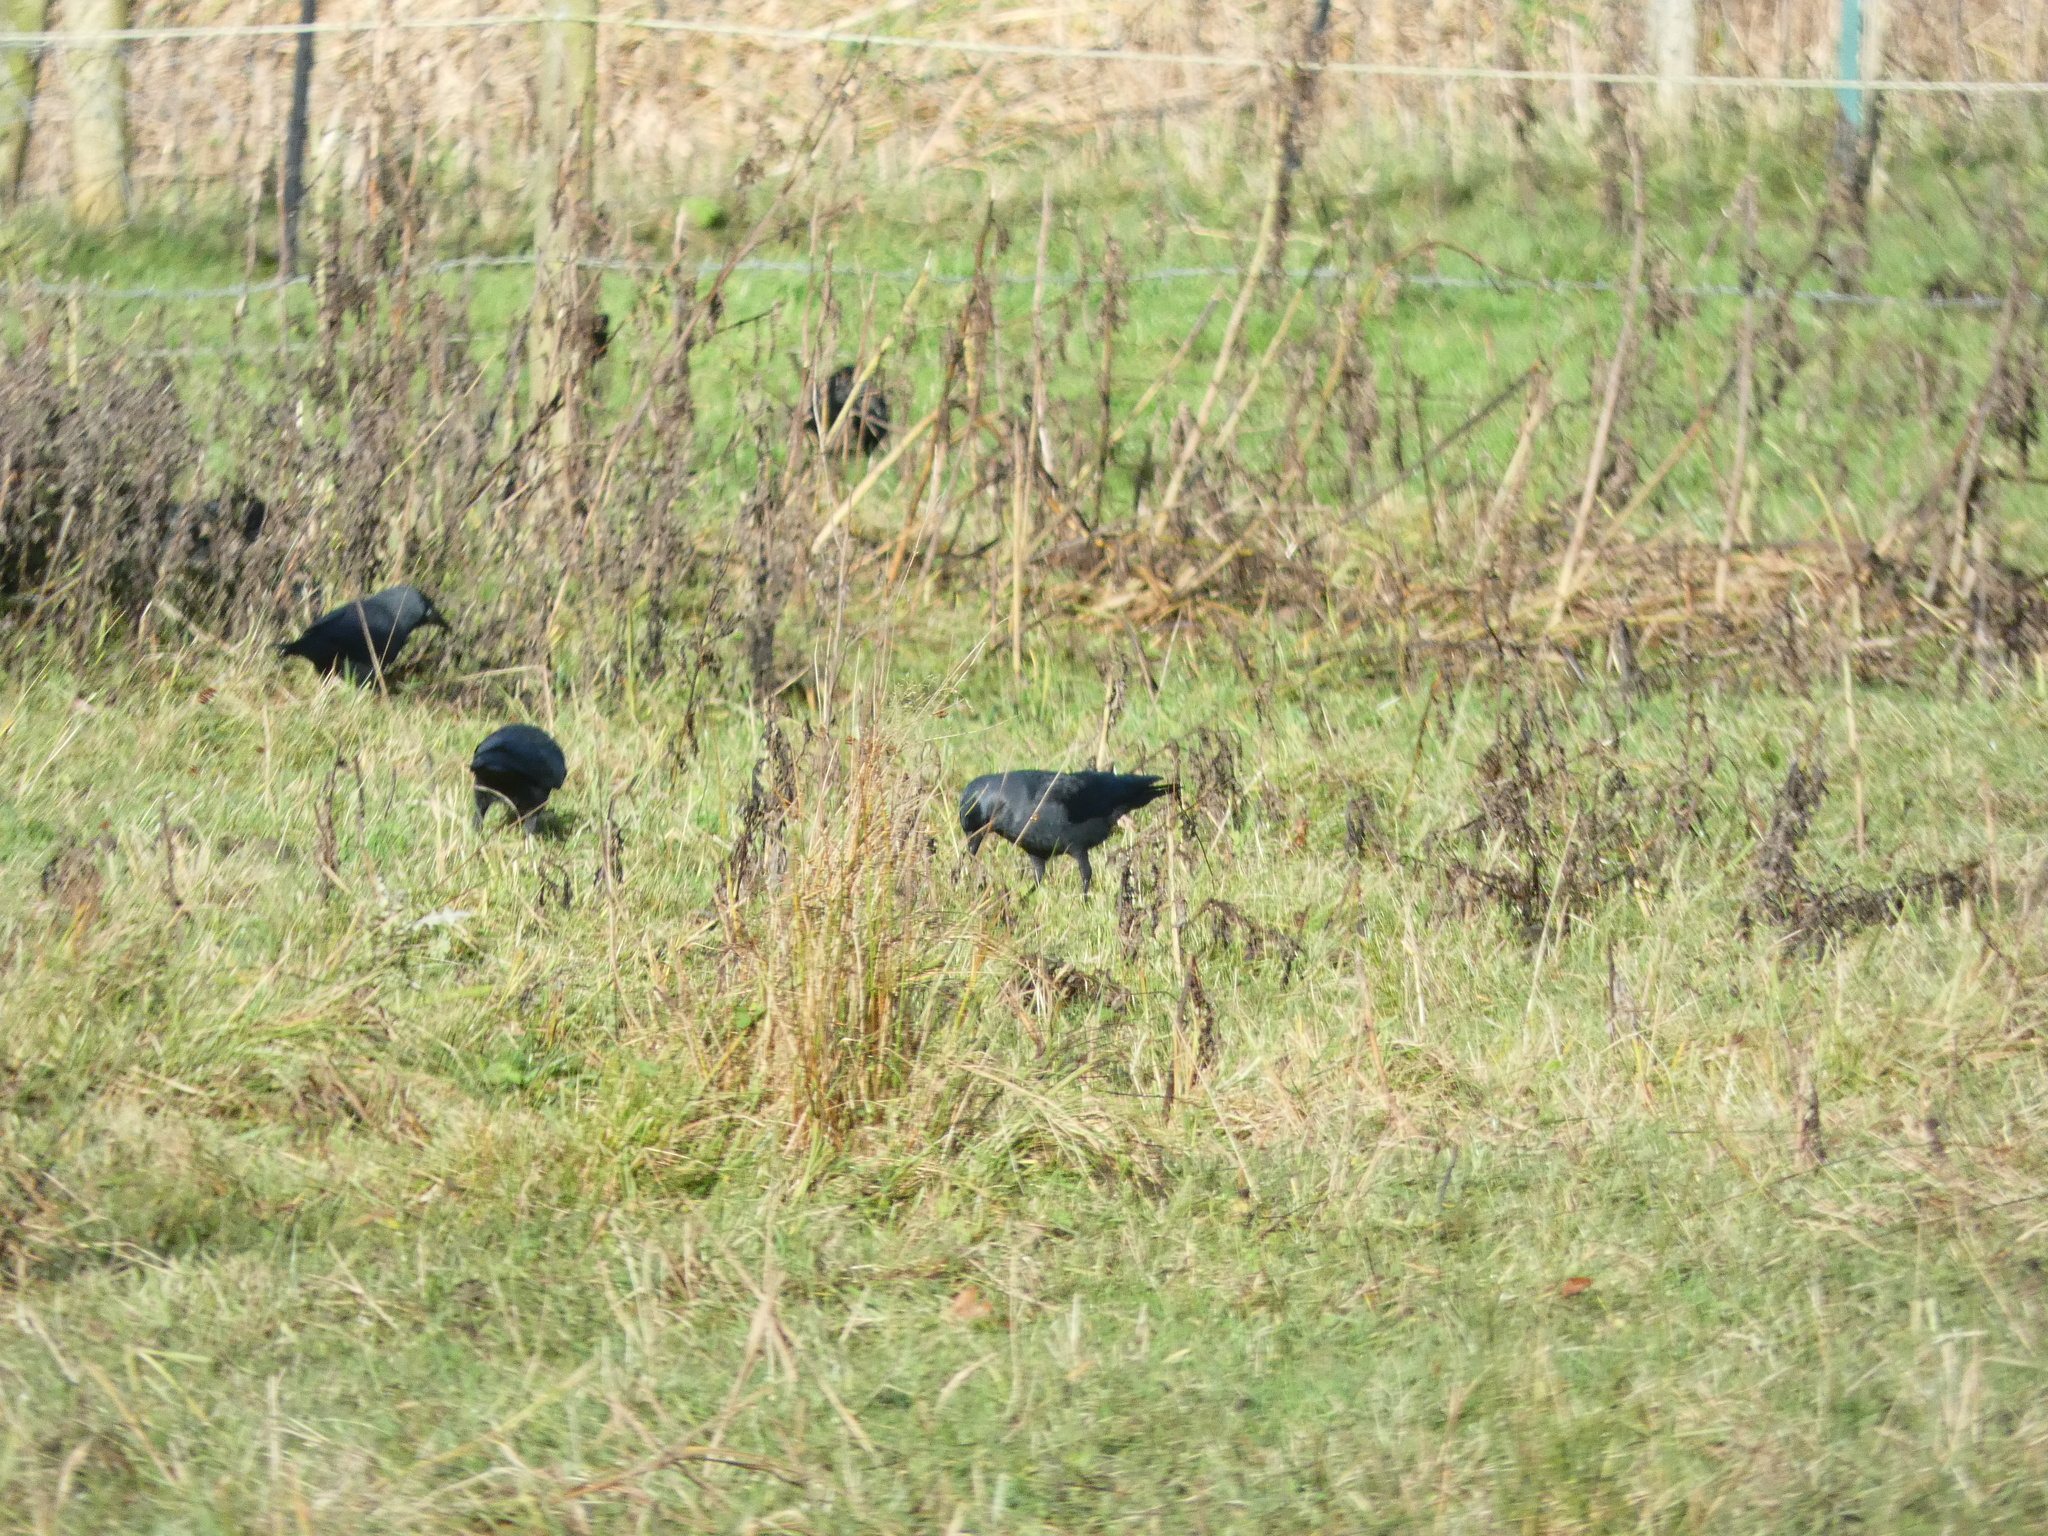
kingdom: Animalia
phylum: Chordata
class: Aves
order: Passeriformes
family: Corvidae
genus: Coloeus
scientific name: Coloeus monedula
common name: Western jackdaw
